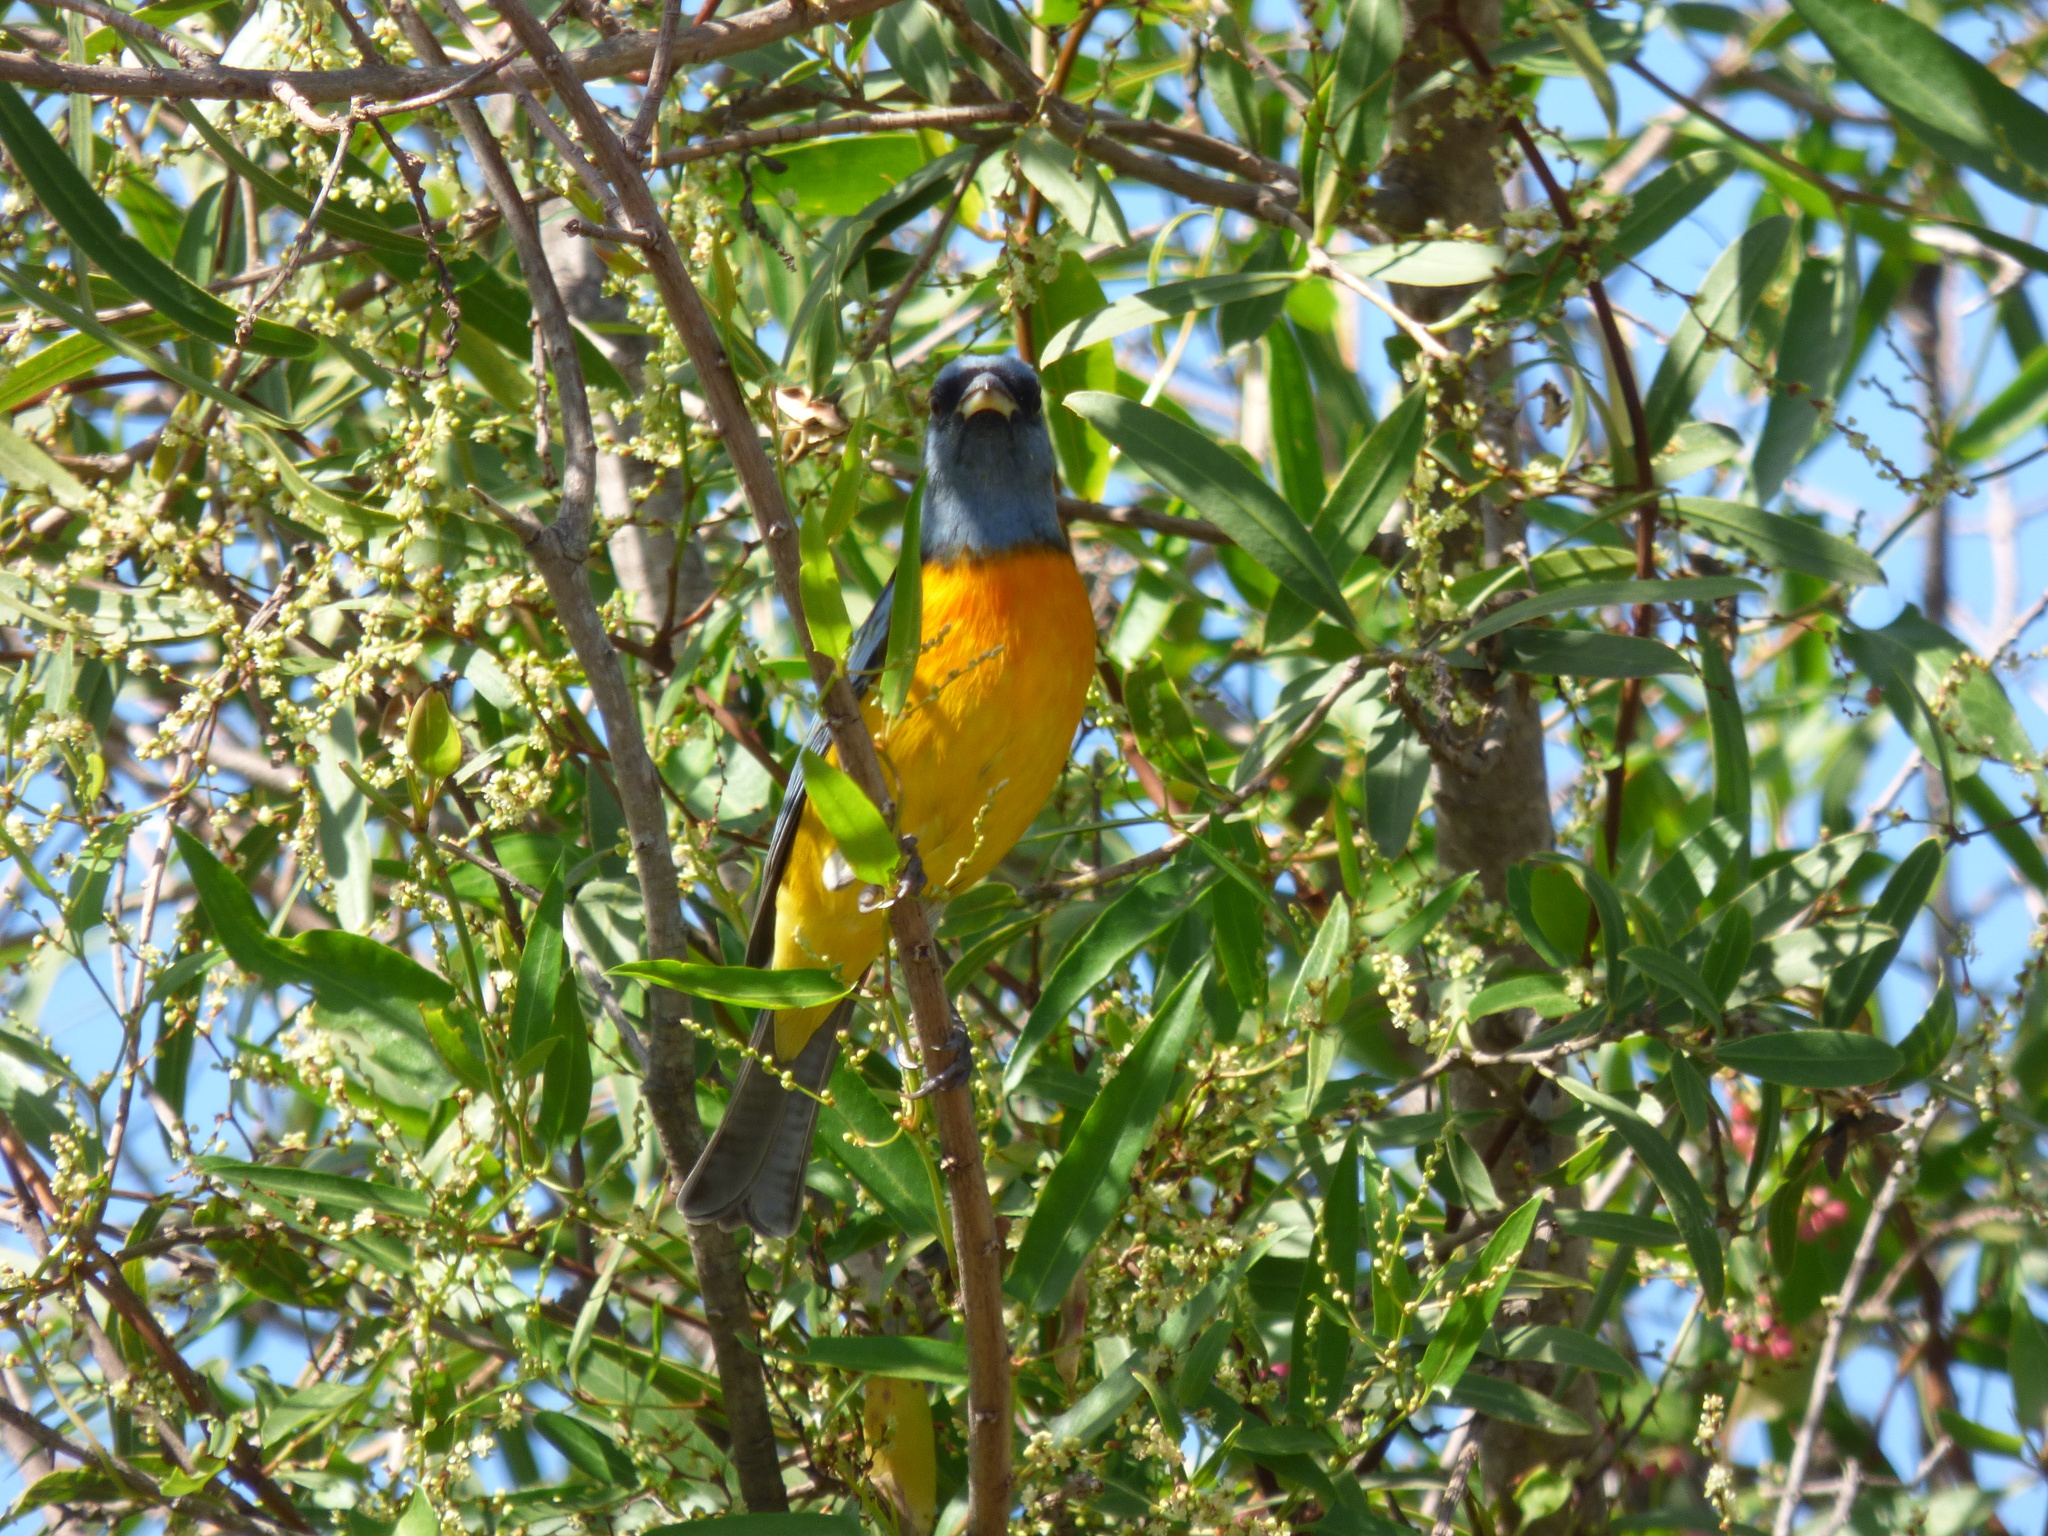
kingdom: Animalia
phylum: Chordata
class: Aves
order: Passeriformes
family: Thraupidae
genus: Rauenia
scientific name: Rauenia bonariensis
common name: Blue-and-yellow tanager
